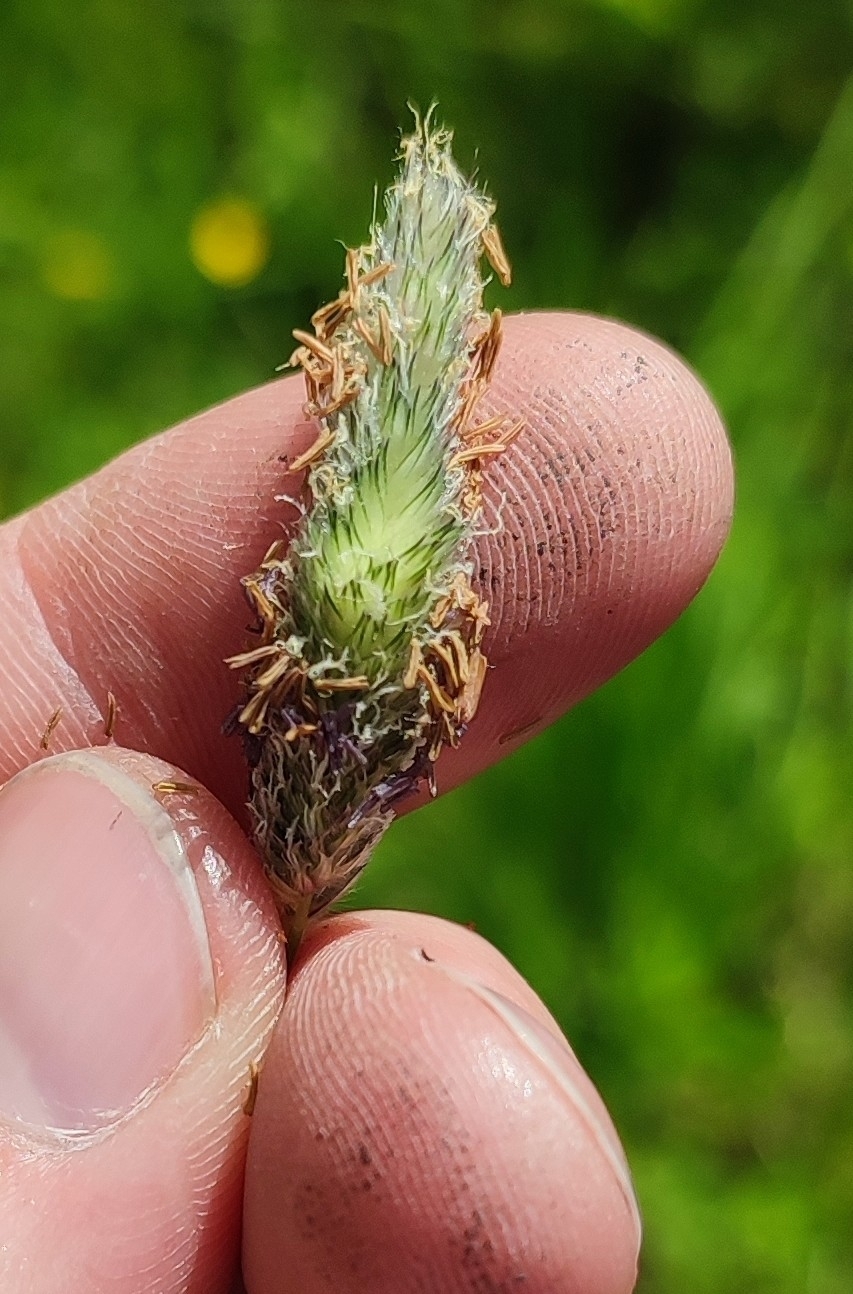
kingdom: Plantae
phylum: Tracheophyta
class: Liliopsida
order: Poales
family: Poaceae
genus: Alopecurus
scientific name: Alopecurus pratensis
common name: Meadow foxtail
